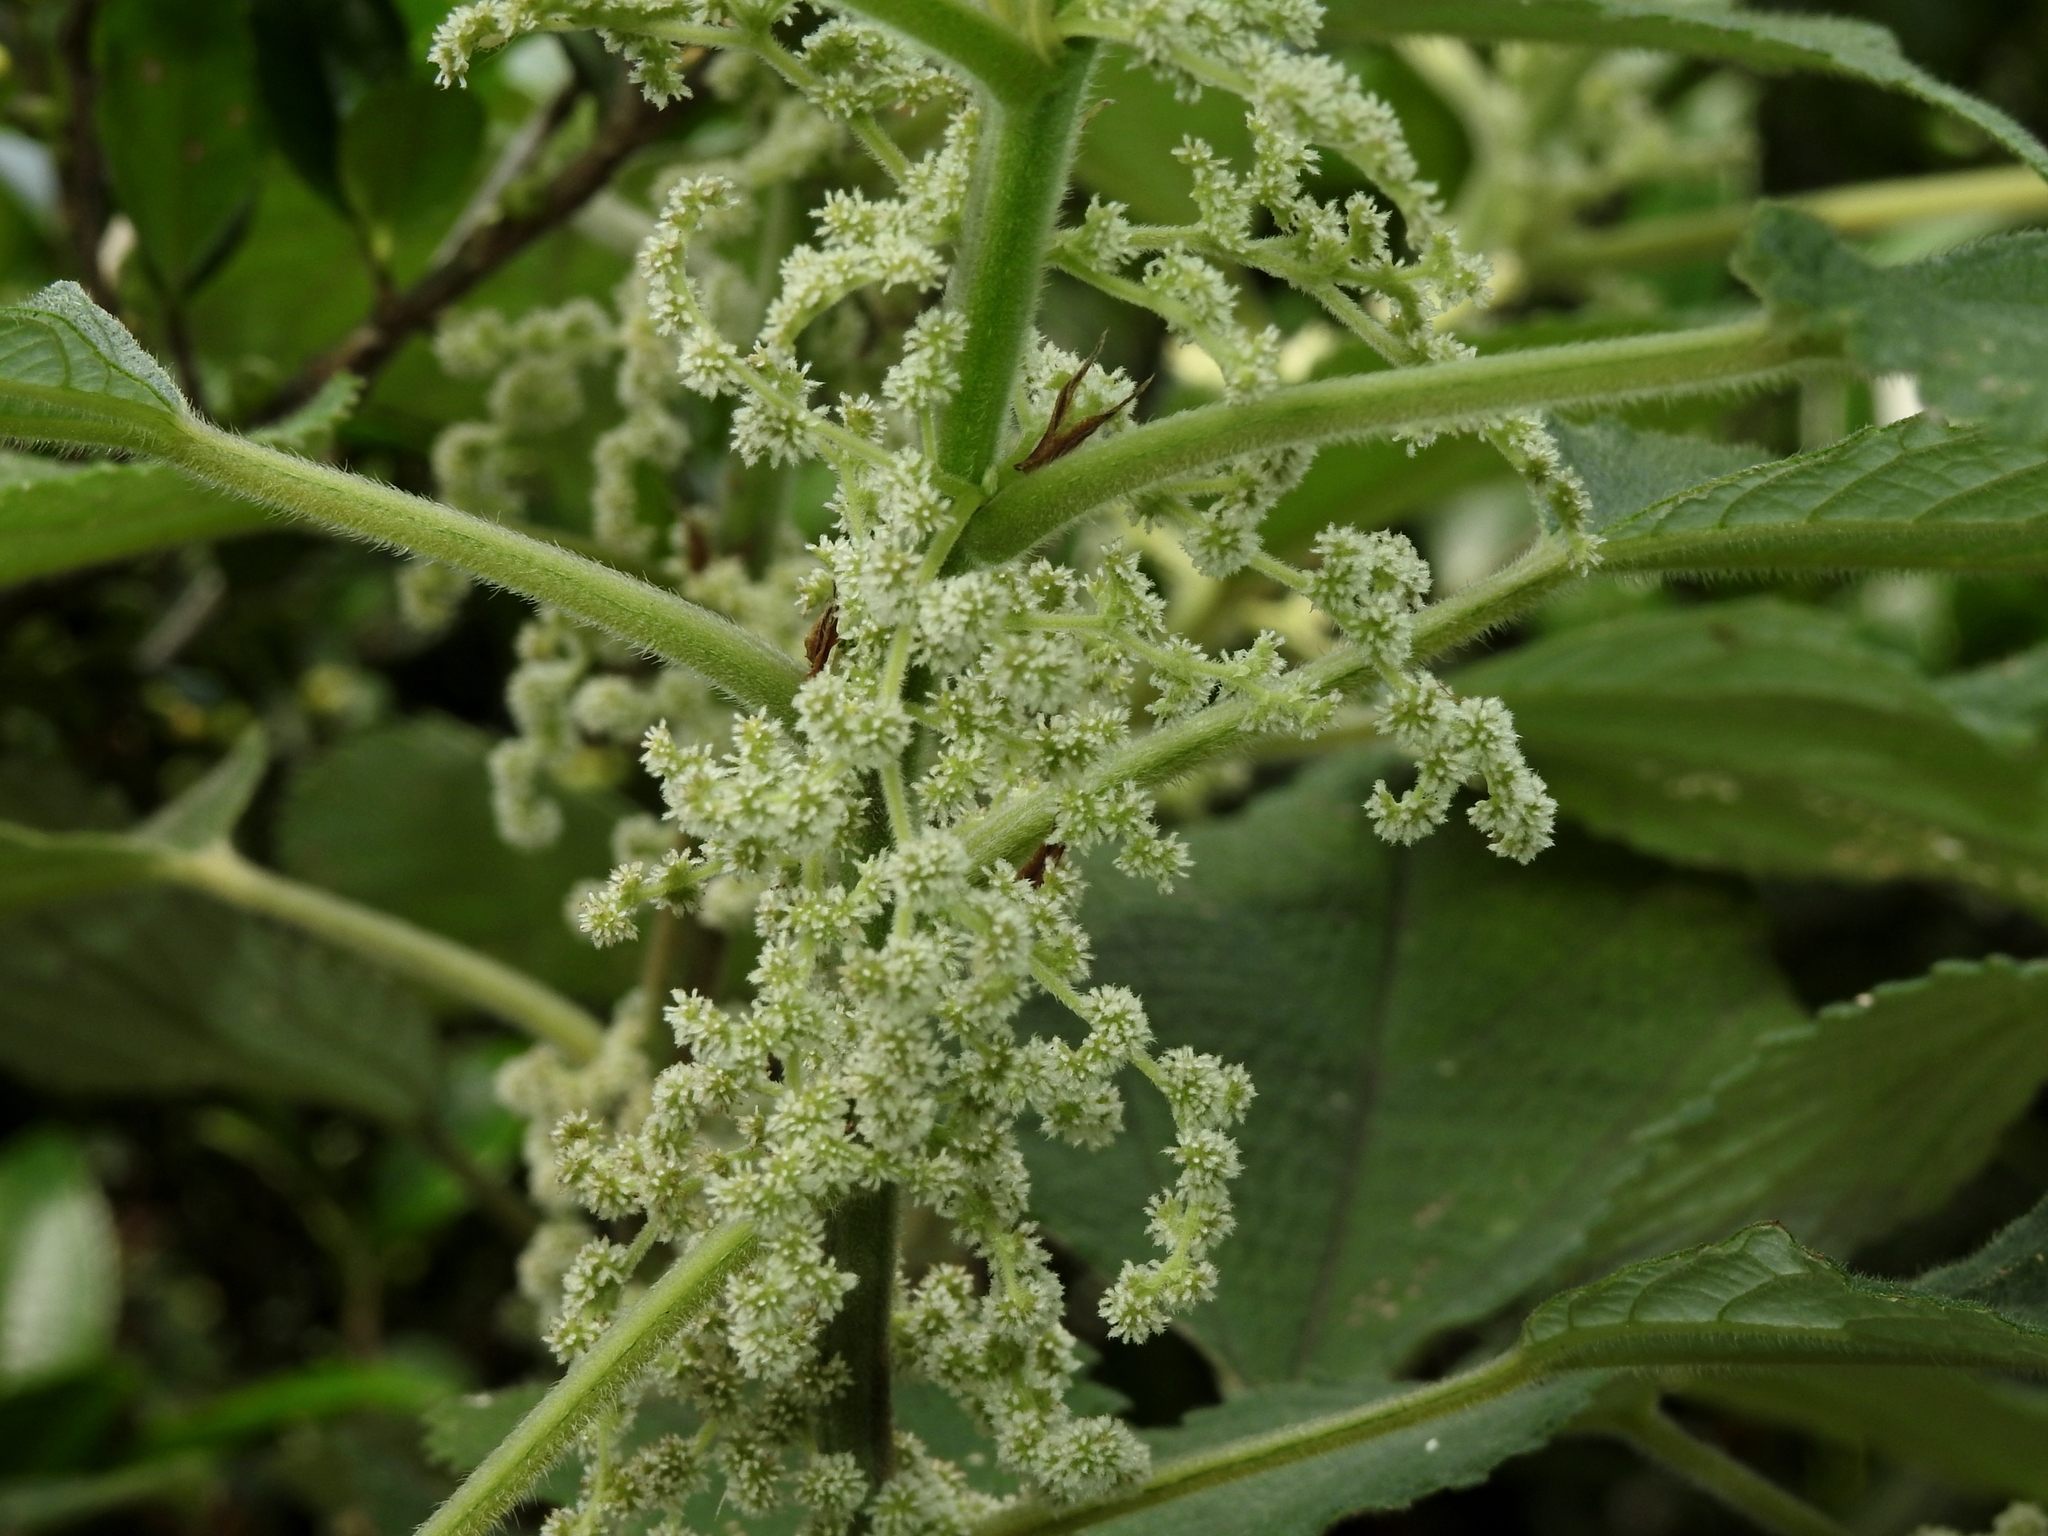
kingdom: Plantae
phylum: Tracheophyta
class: Magnoliopsida
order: Rosales
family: Urticaceae
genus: Boehmeria
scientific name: Boehmeria nivea
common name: Ramie chinese grass
